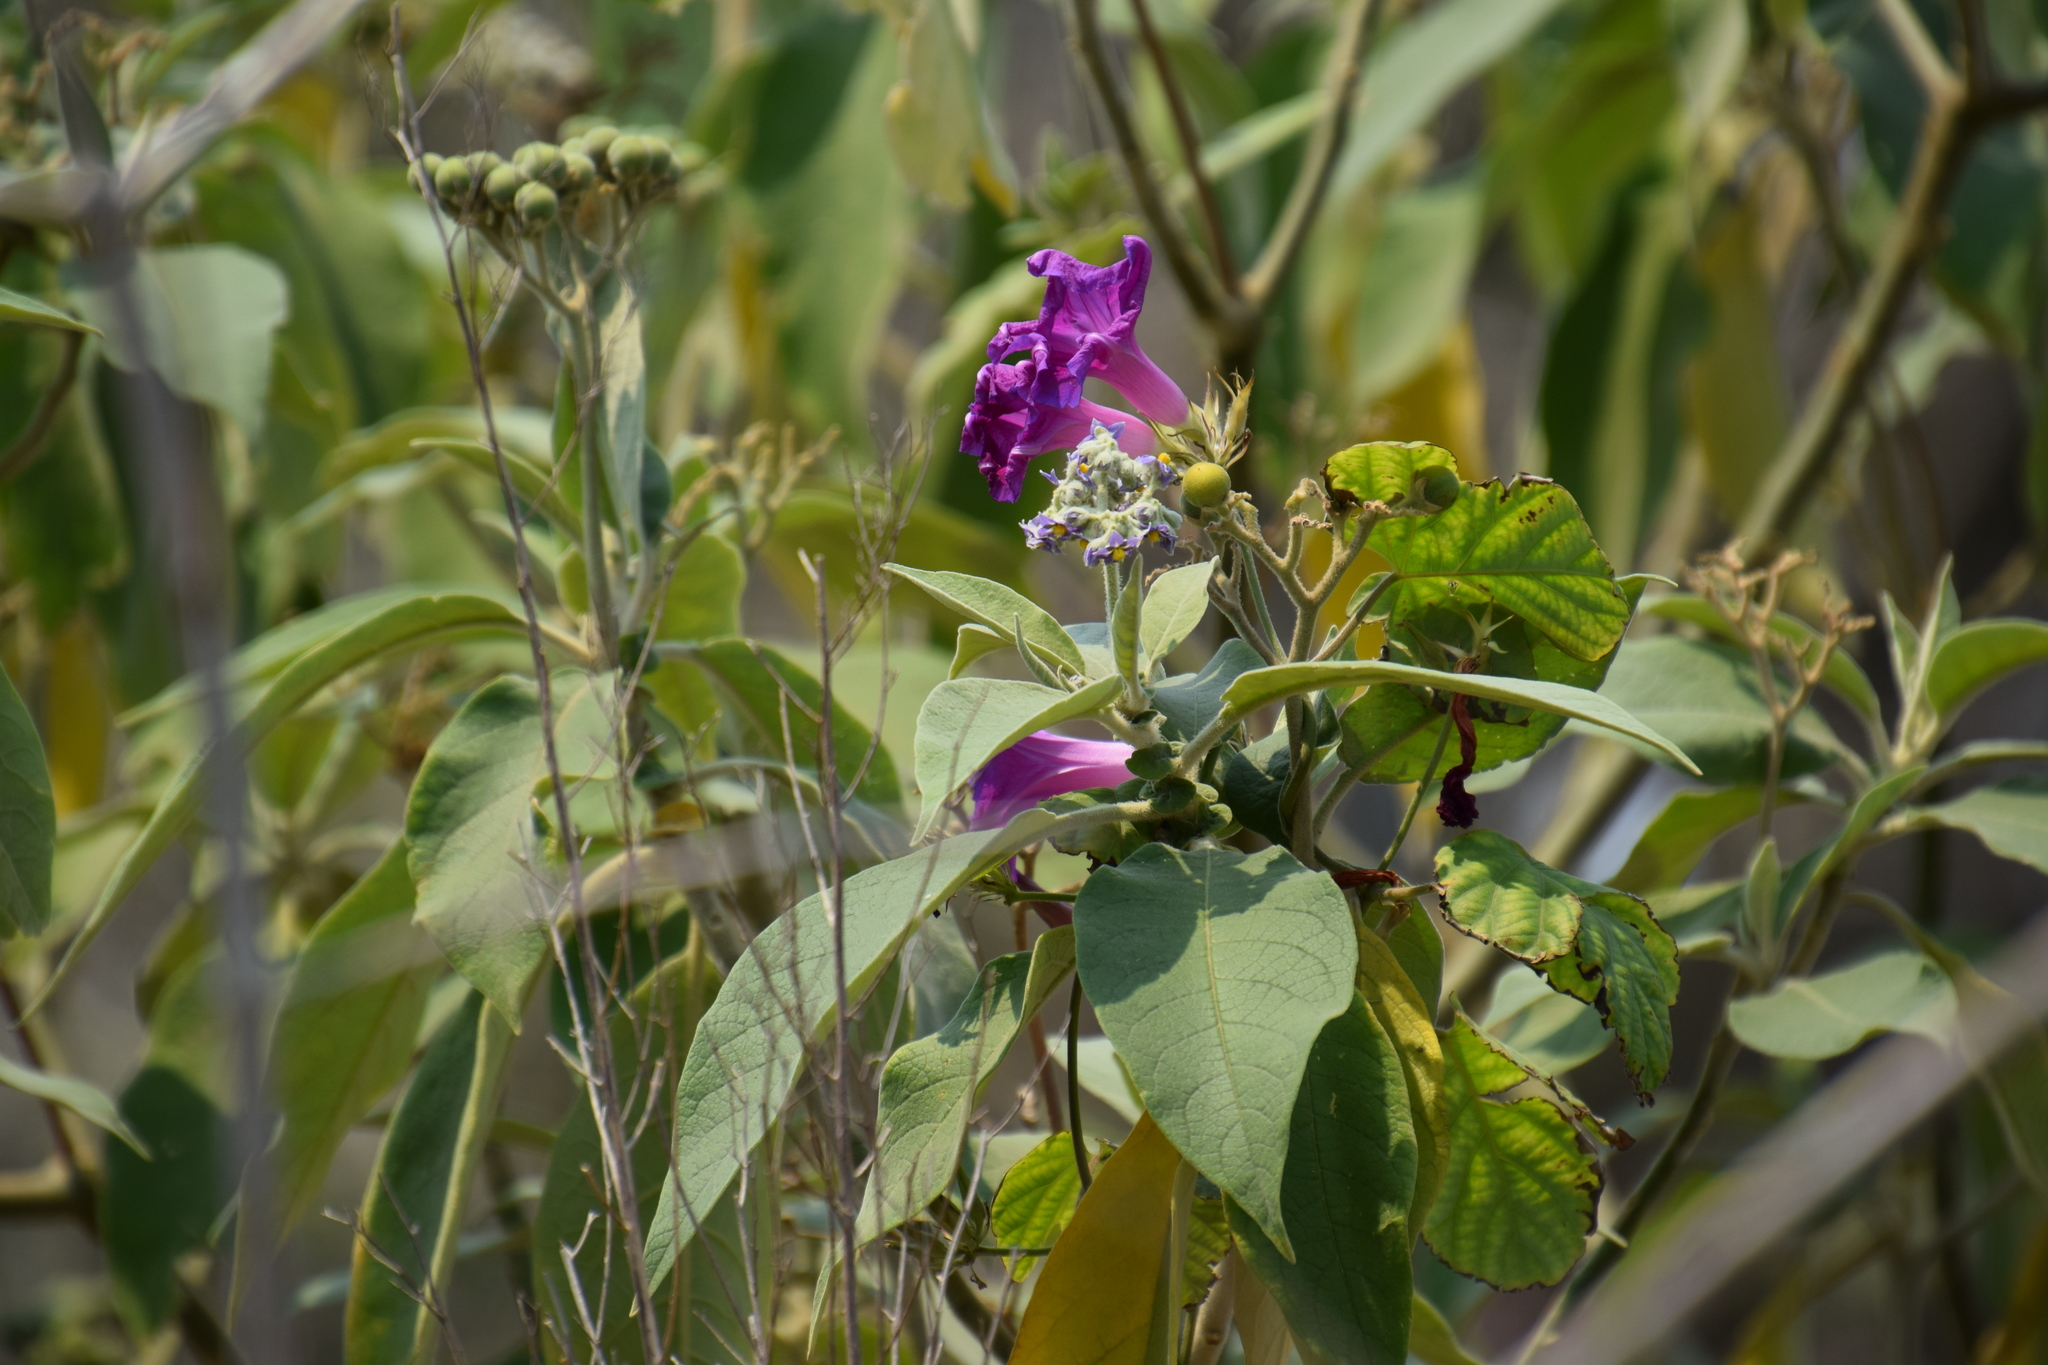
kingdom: Plantae
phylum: Tracheophyta
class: Magnoliopsida
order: Solanales
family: Convolvulaceae
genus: Ipomoea
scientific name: Ipomoea indica
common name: Blue dawnflower
